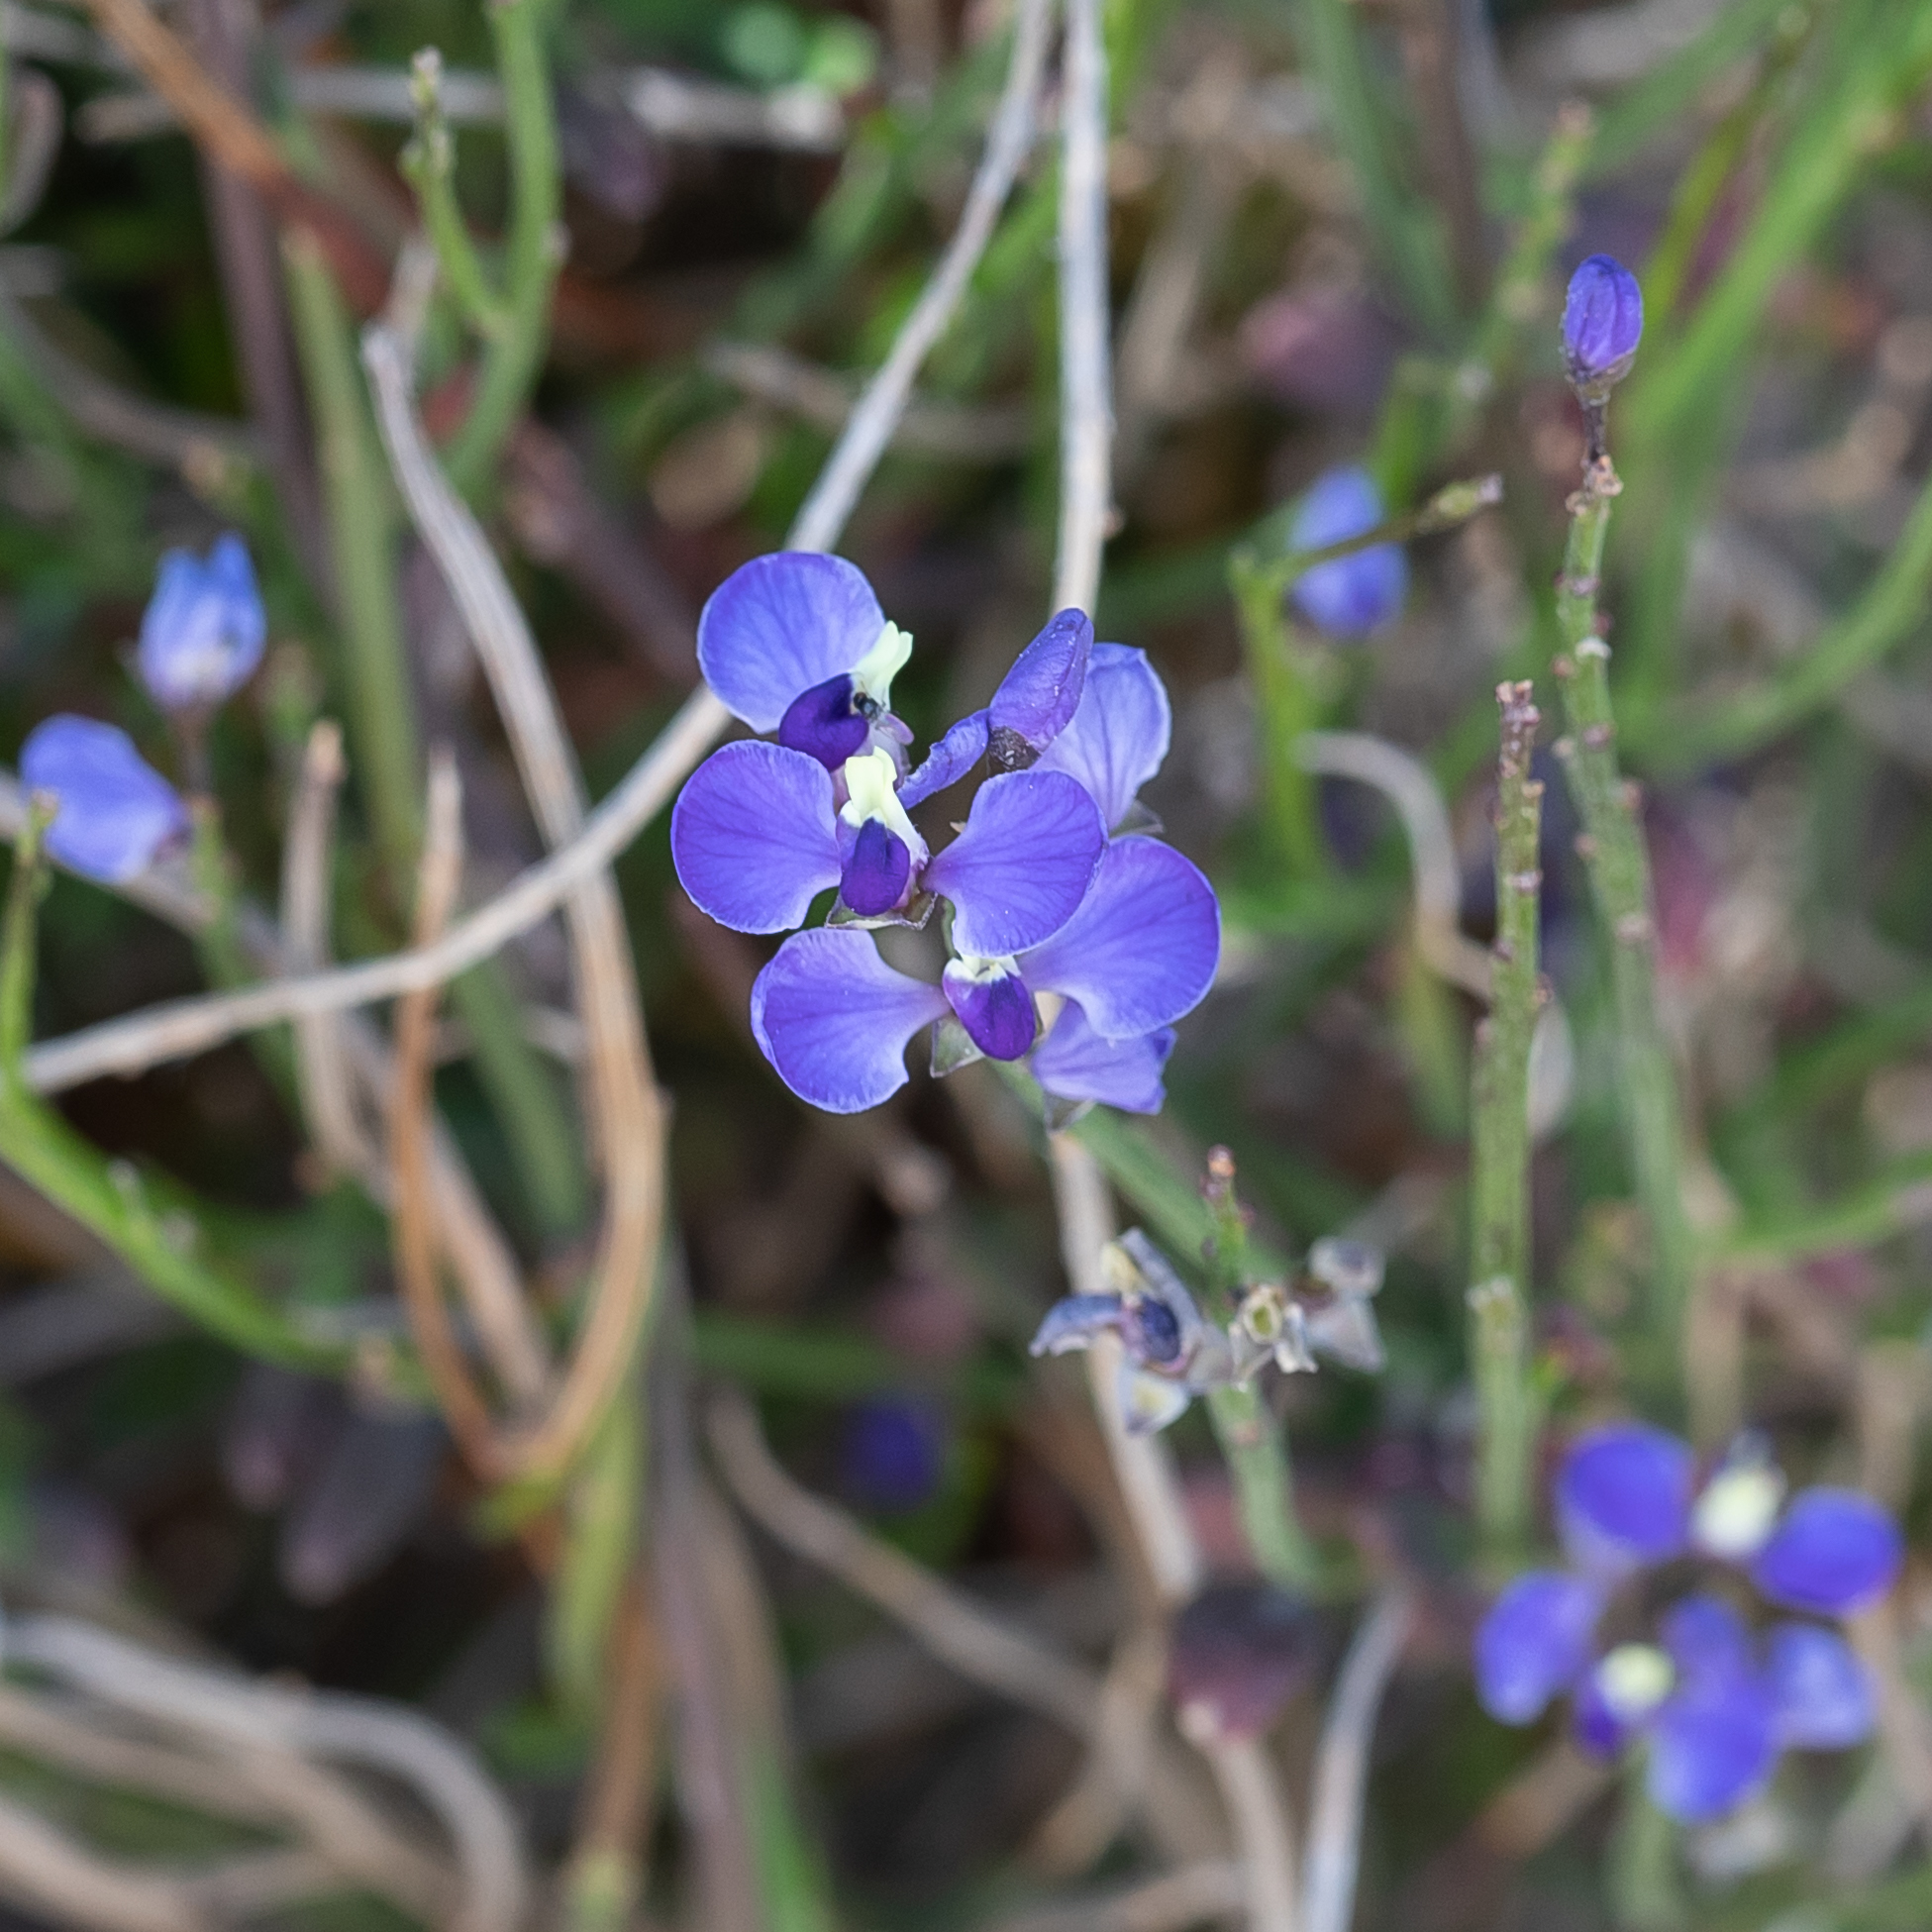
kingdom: Plantae
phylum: Tracheophyta
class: Magnoliopsida
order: Fabales
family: Polygalaceae
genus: Comesperma
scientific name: Comesperma volubile
